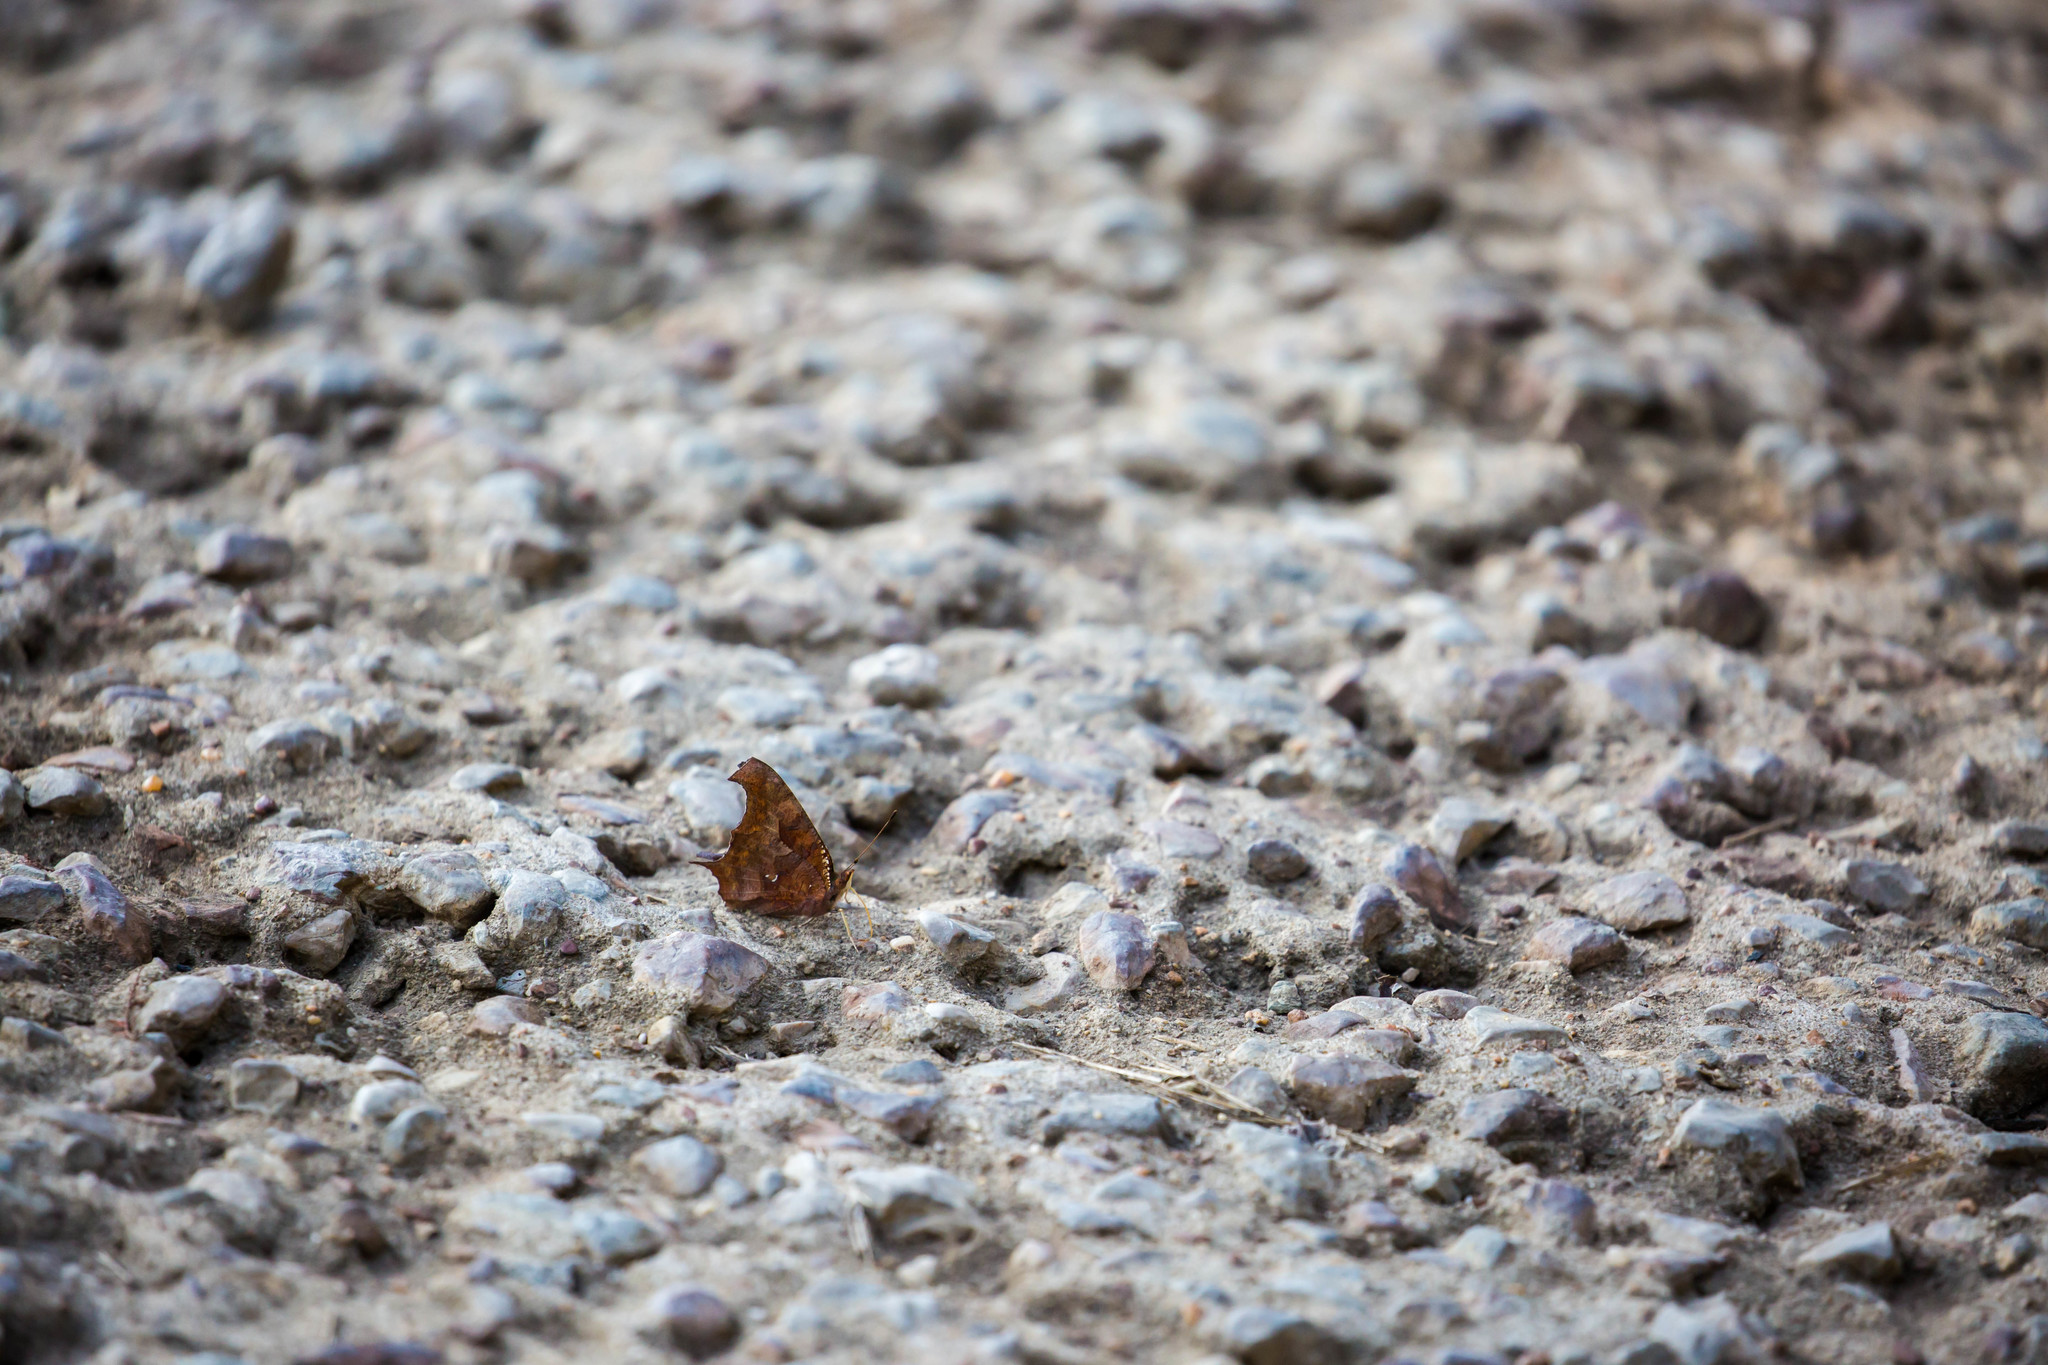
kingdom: Animalia
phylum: Arthropoda
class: Insecta
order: Lepidoptera
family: Nymphalidae
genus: Polygonia
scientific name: Polygonia interrogationis
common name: Question mark
